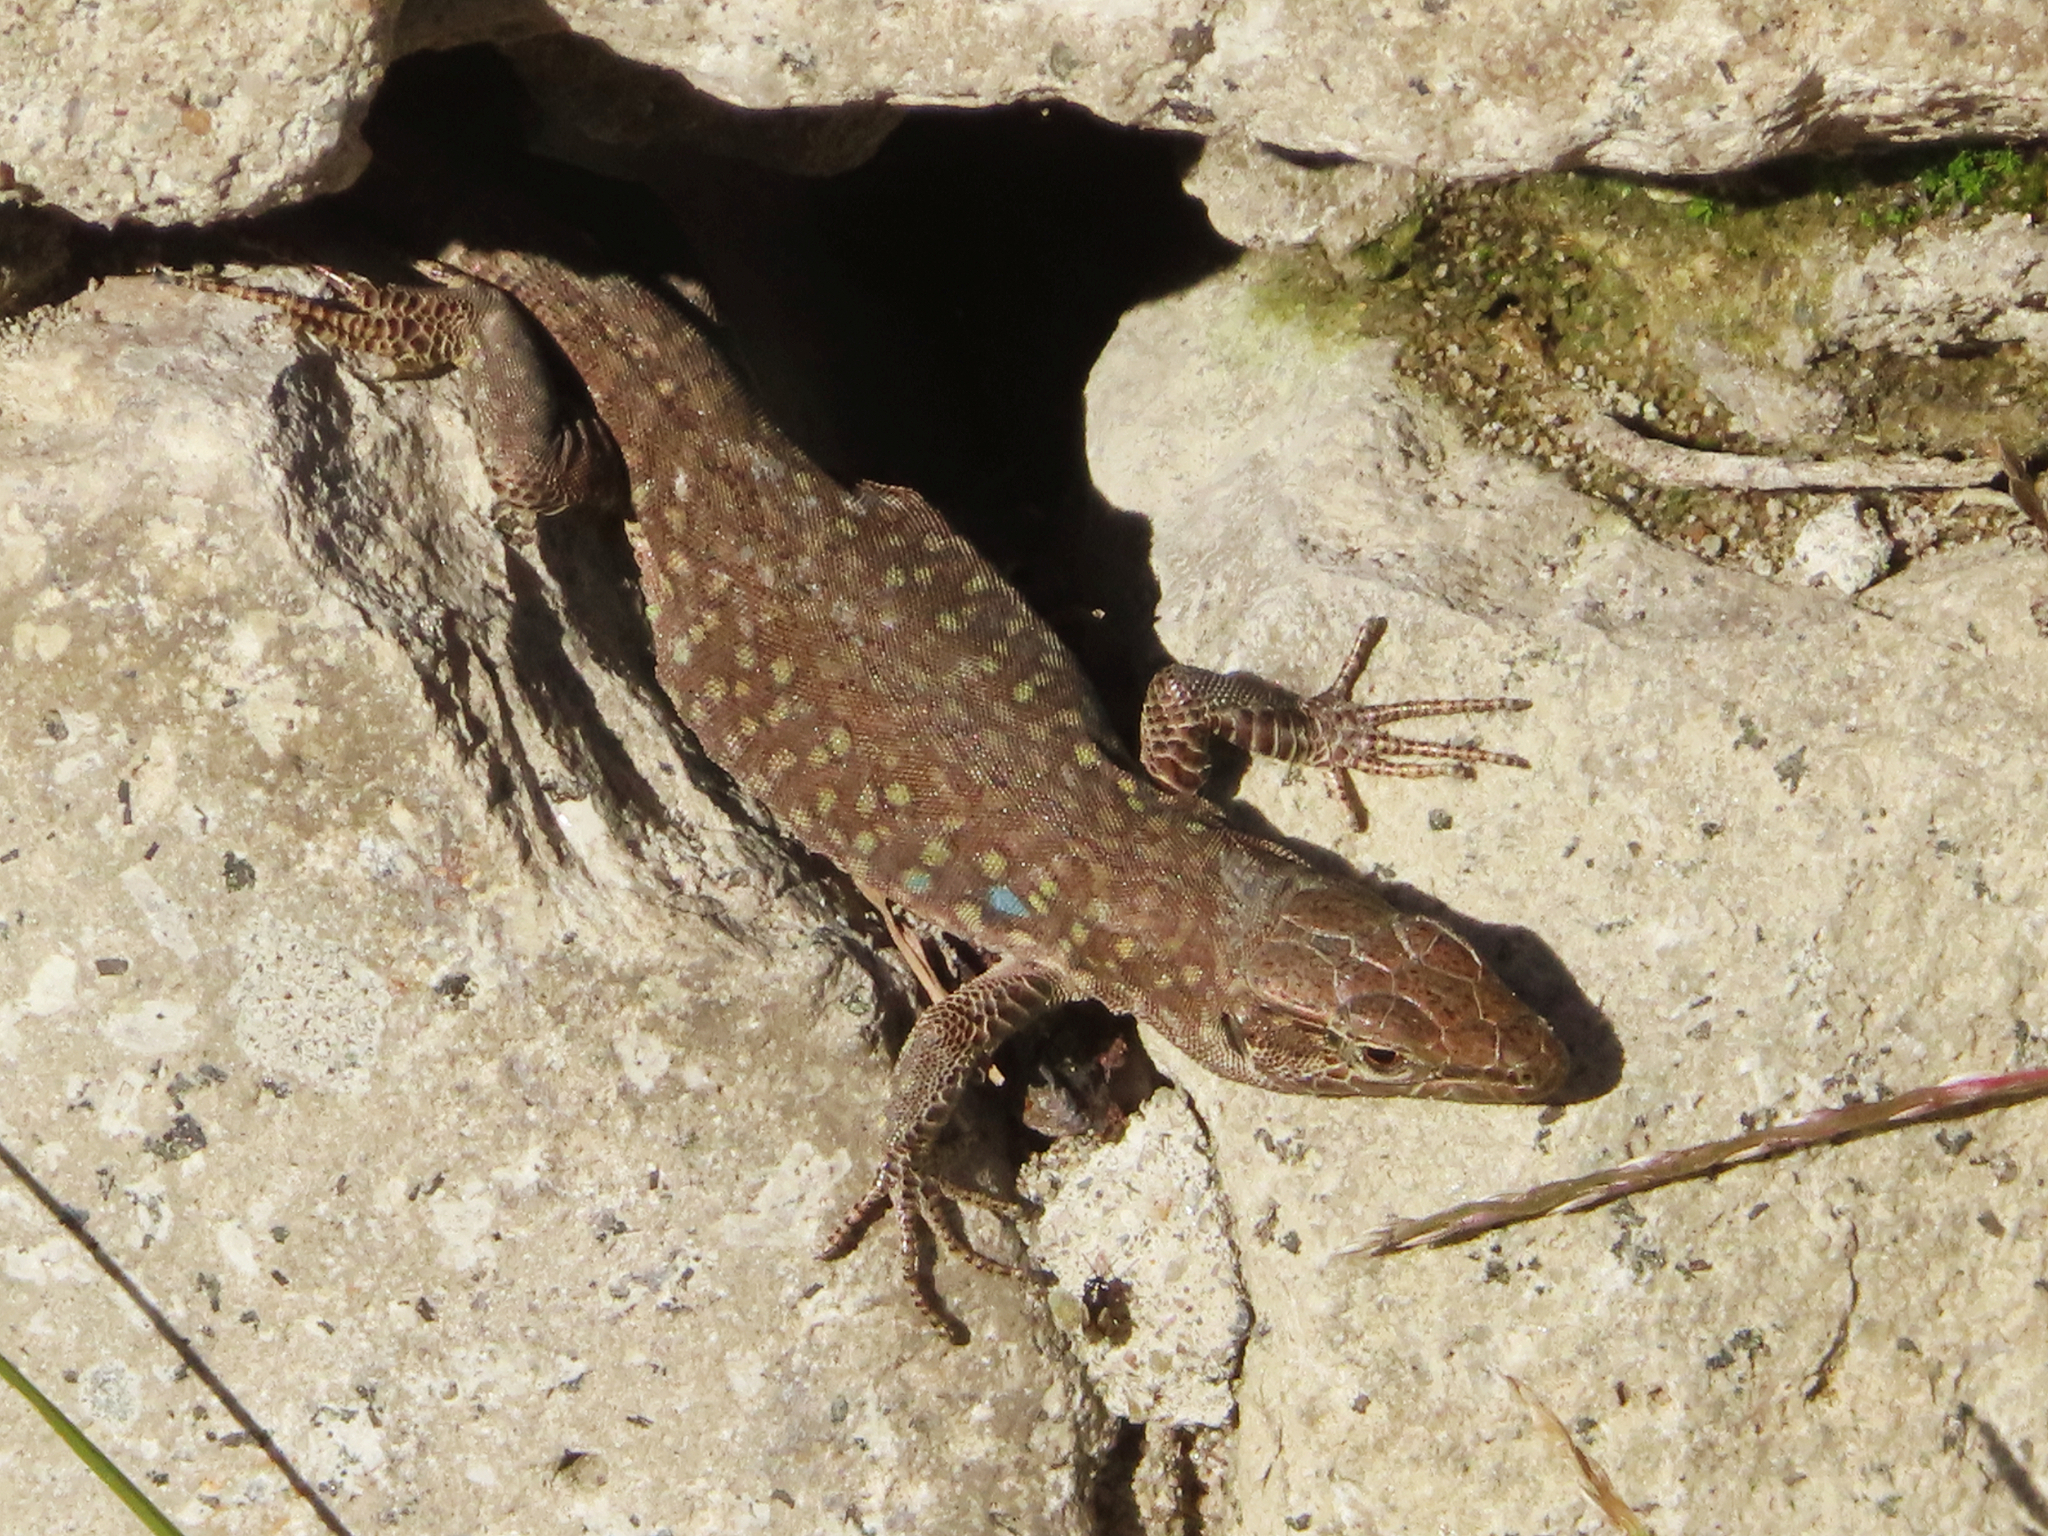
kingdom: Animalia
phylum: Chordata
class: Squamata
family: Lacertidae
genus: Podarcis
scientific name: Podarcis siculus
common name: Italian wall lizard
